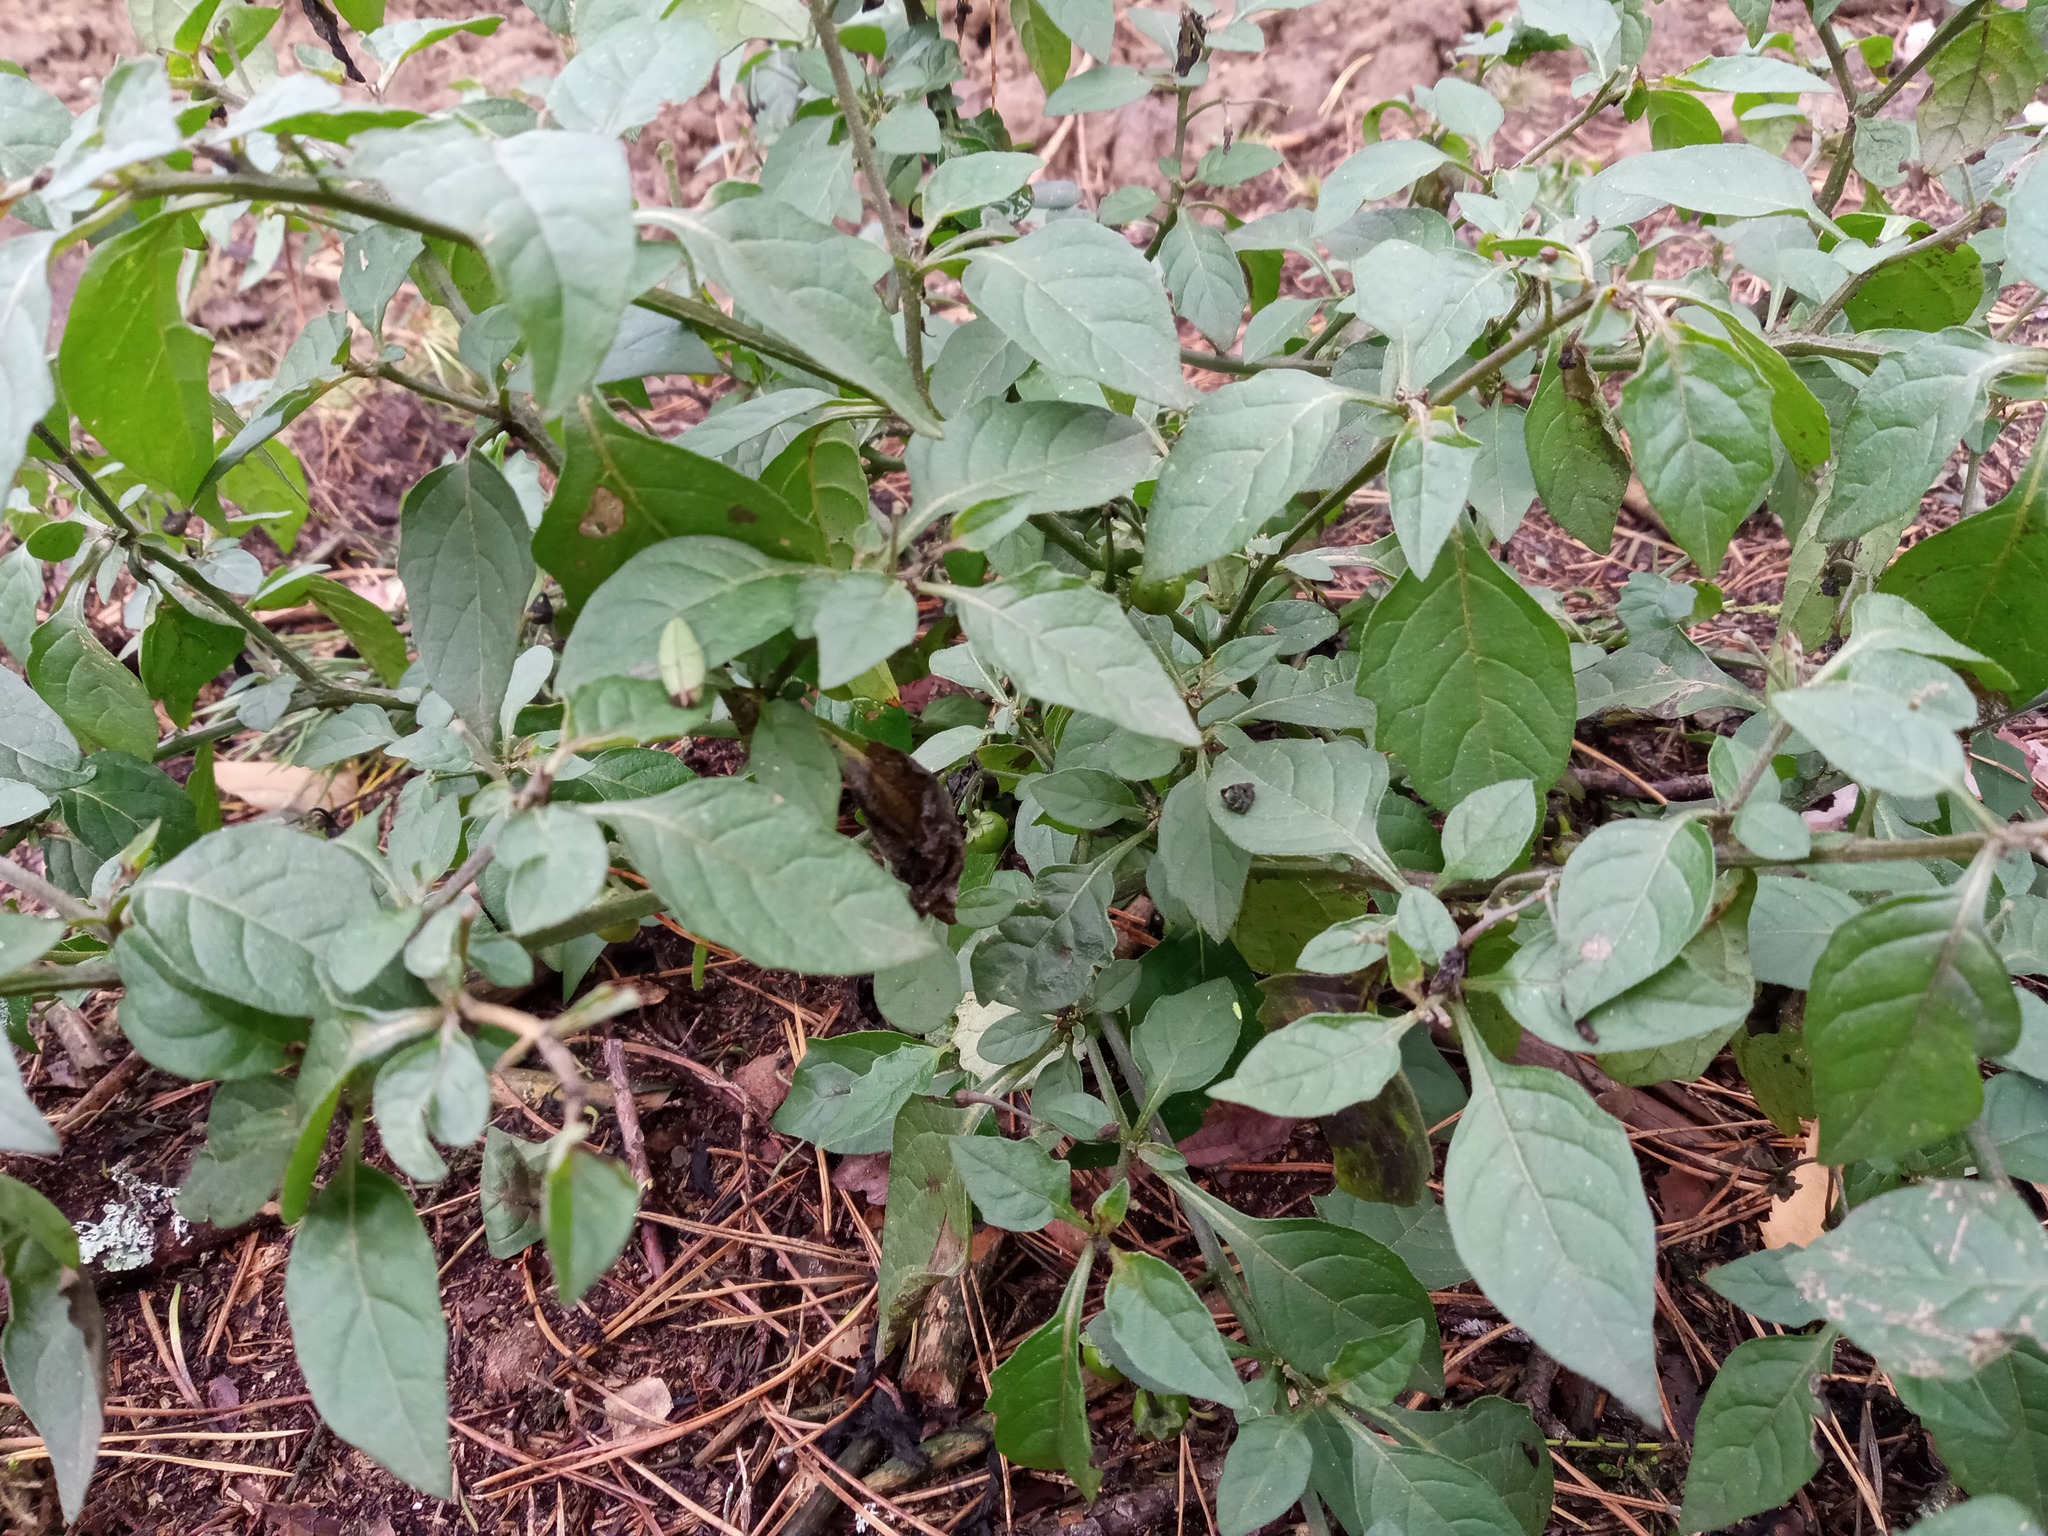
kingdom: Plantae
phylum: Tracheophyta
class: Magnoliopsida
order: Solanales
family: Solanaceae
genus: Solanum
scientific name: Solanum nigrum
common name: Black nightshade
